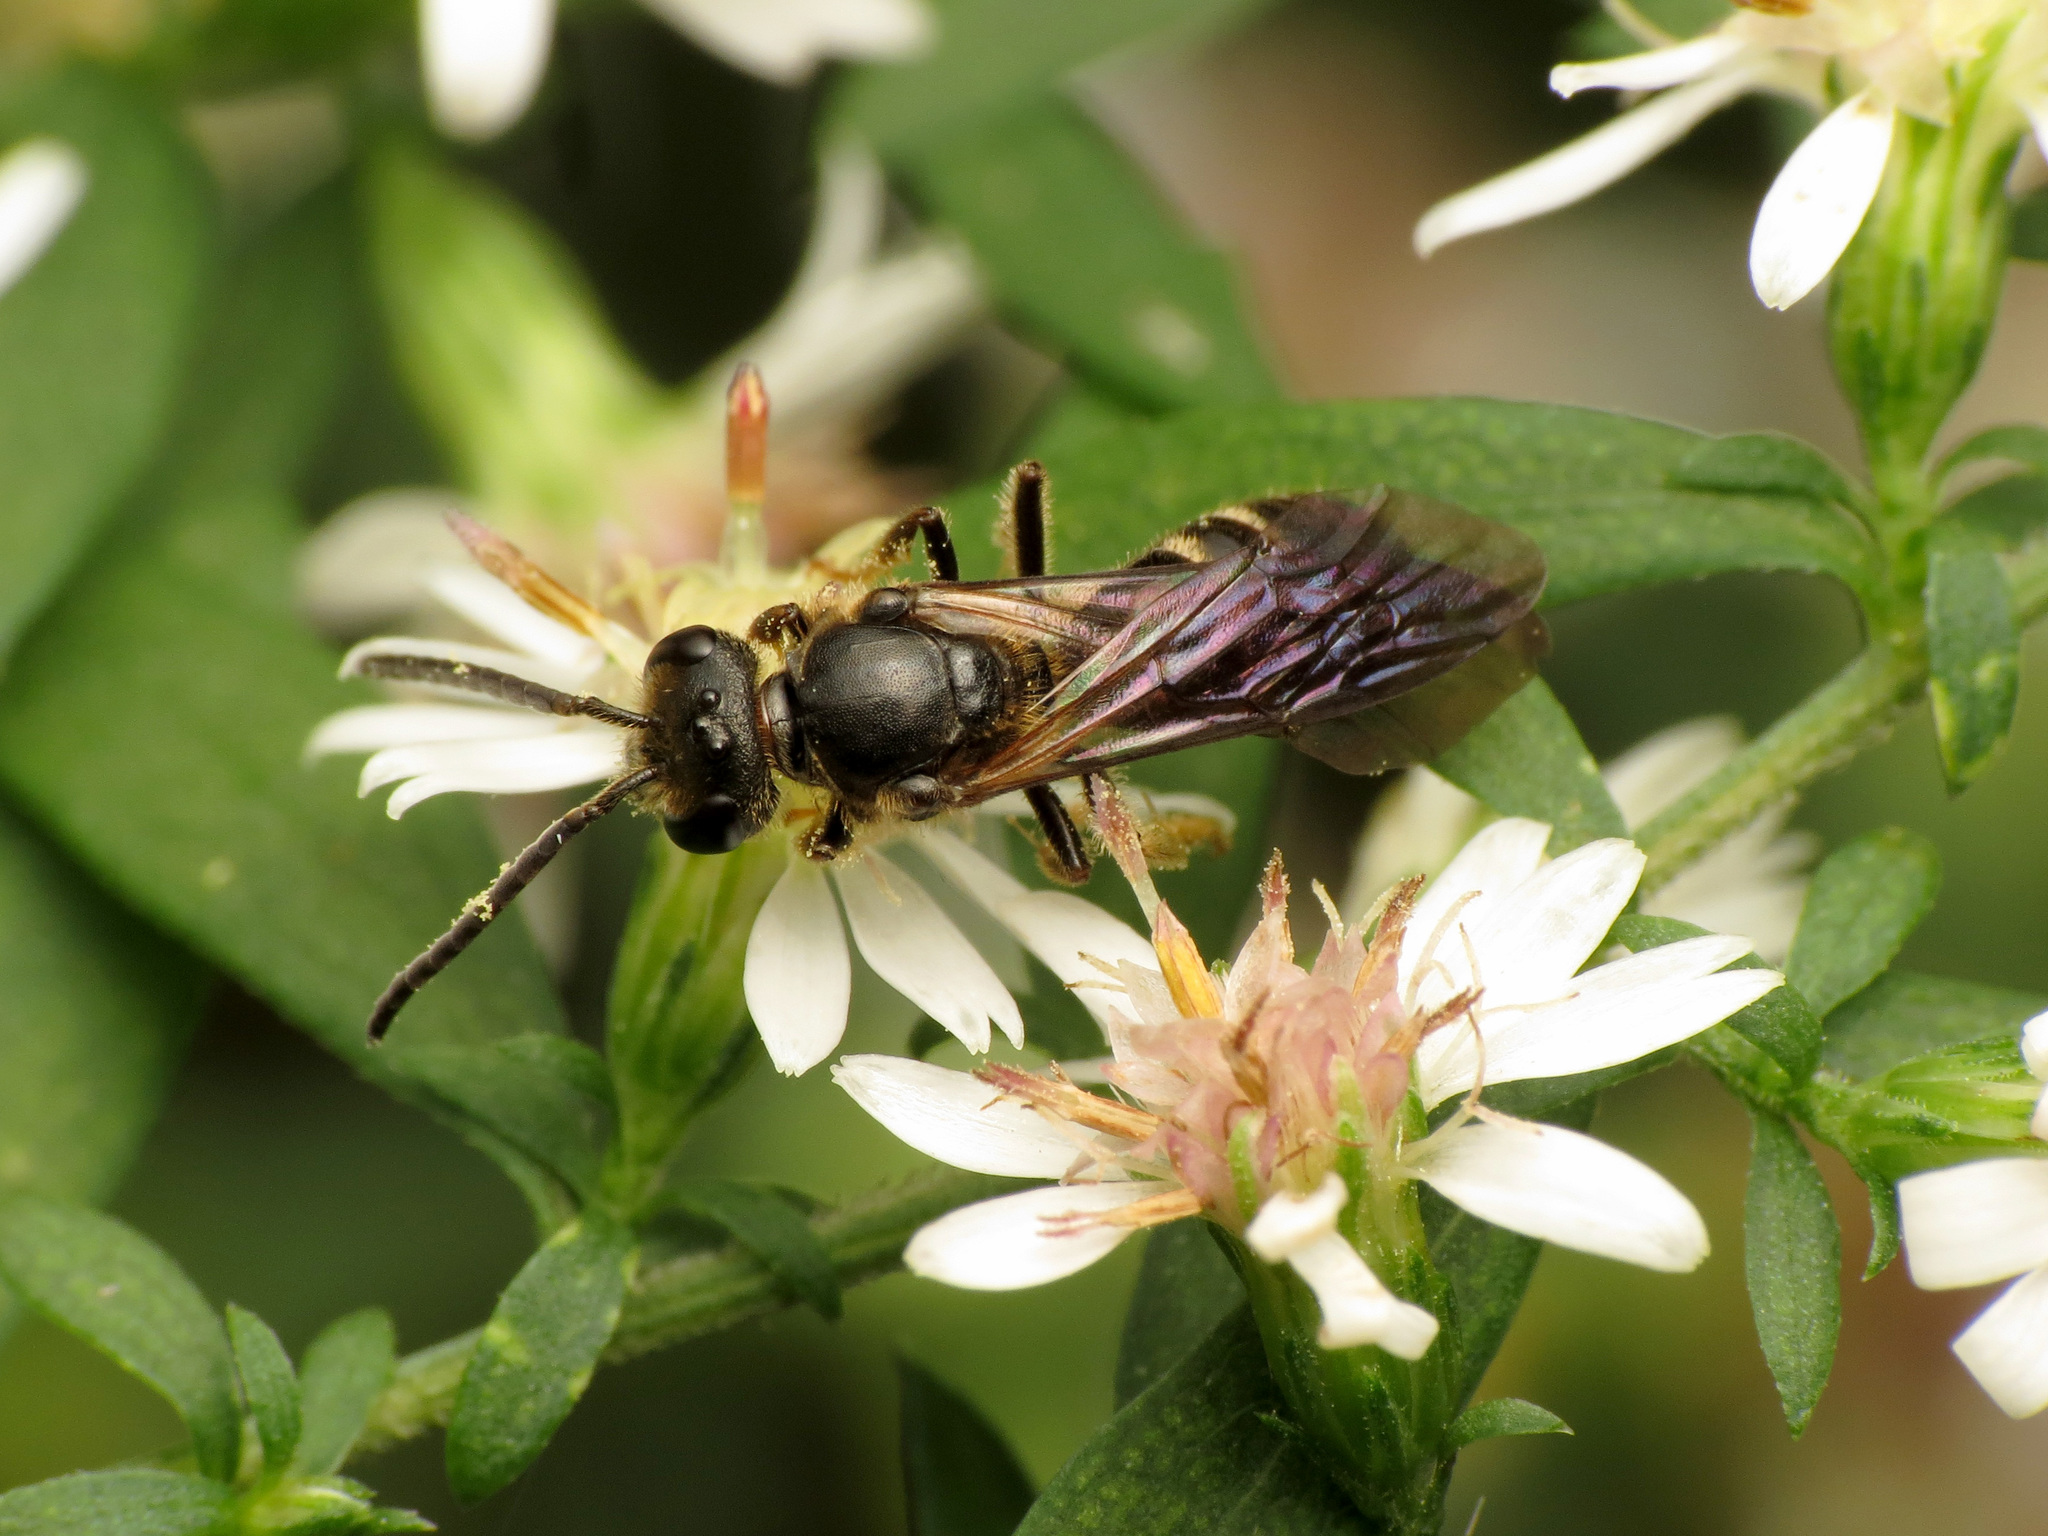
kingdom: Animalia
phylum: Arthropoda
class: Insecta
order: Hymenoptera
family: Halictidae
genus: Lasioglossum
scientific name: Lasioglossum fuscipenne
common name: Brown-winged sweat bee
